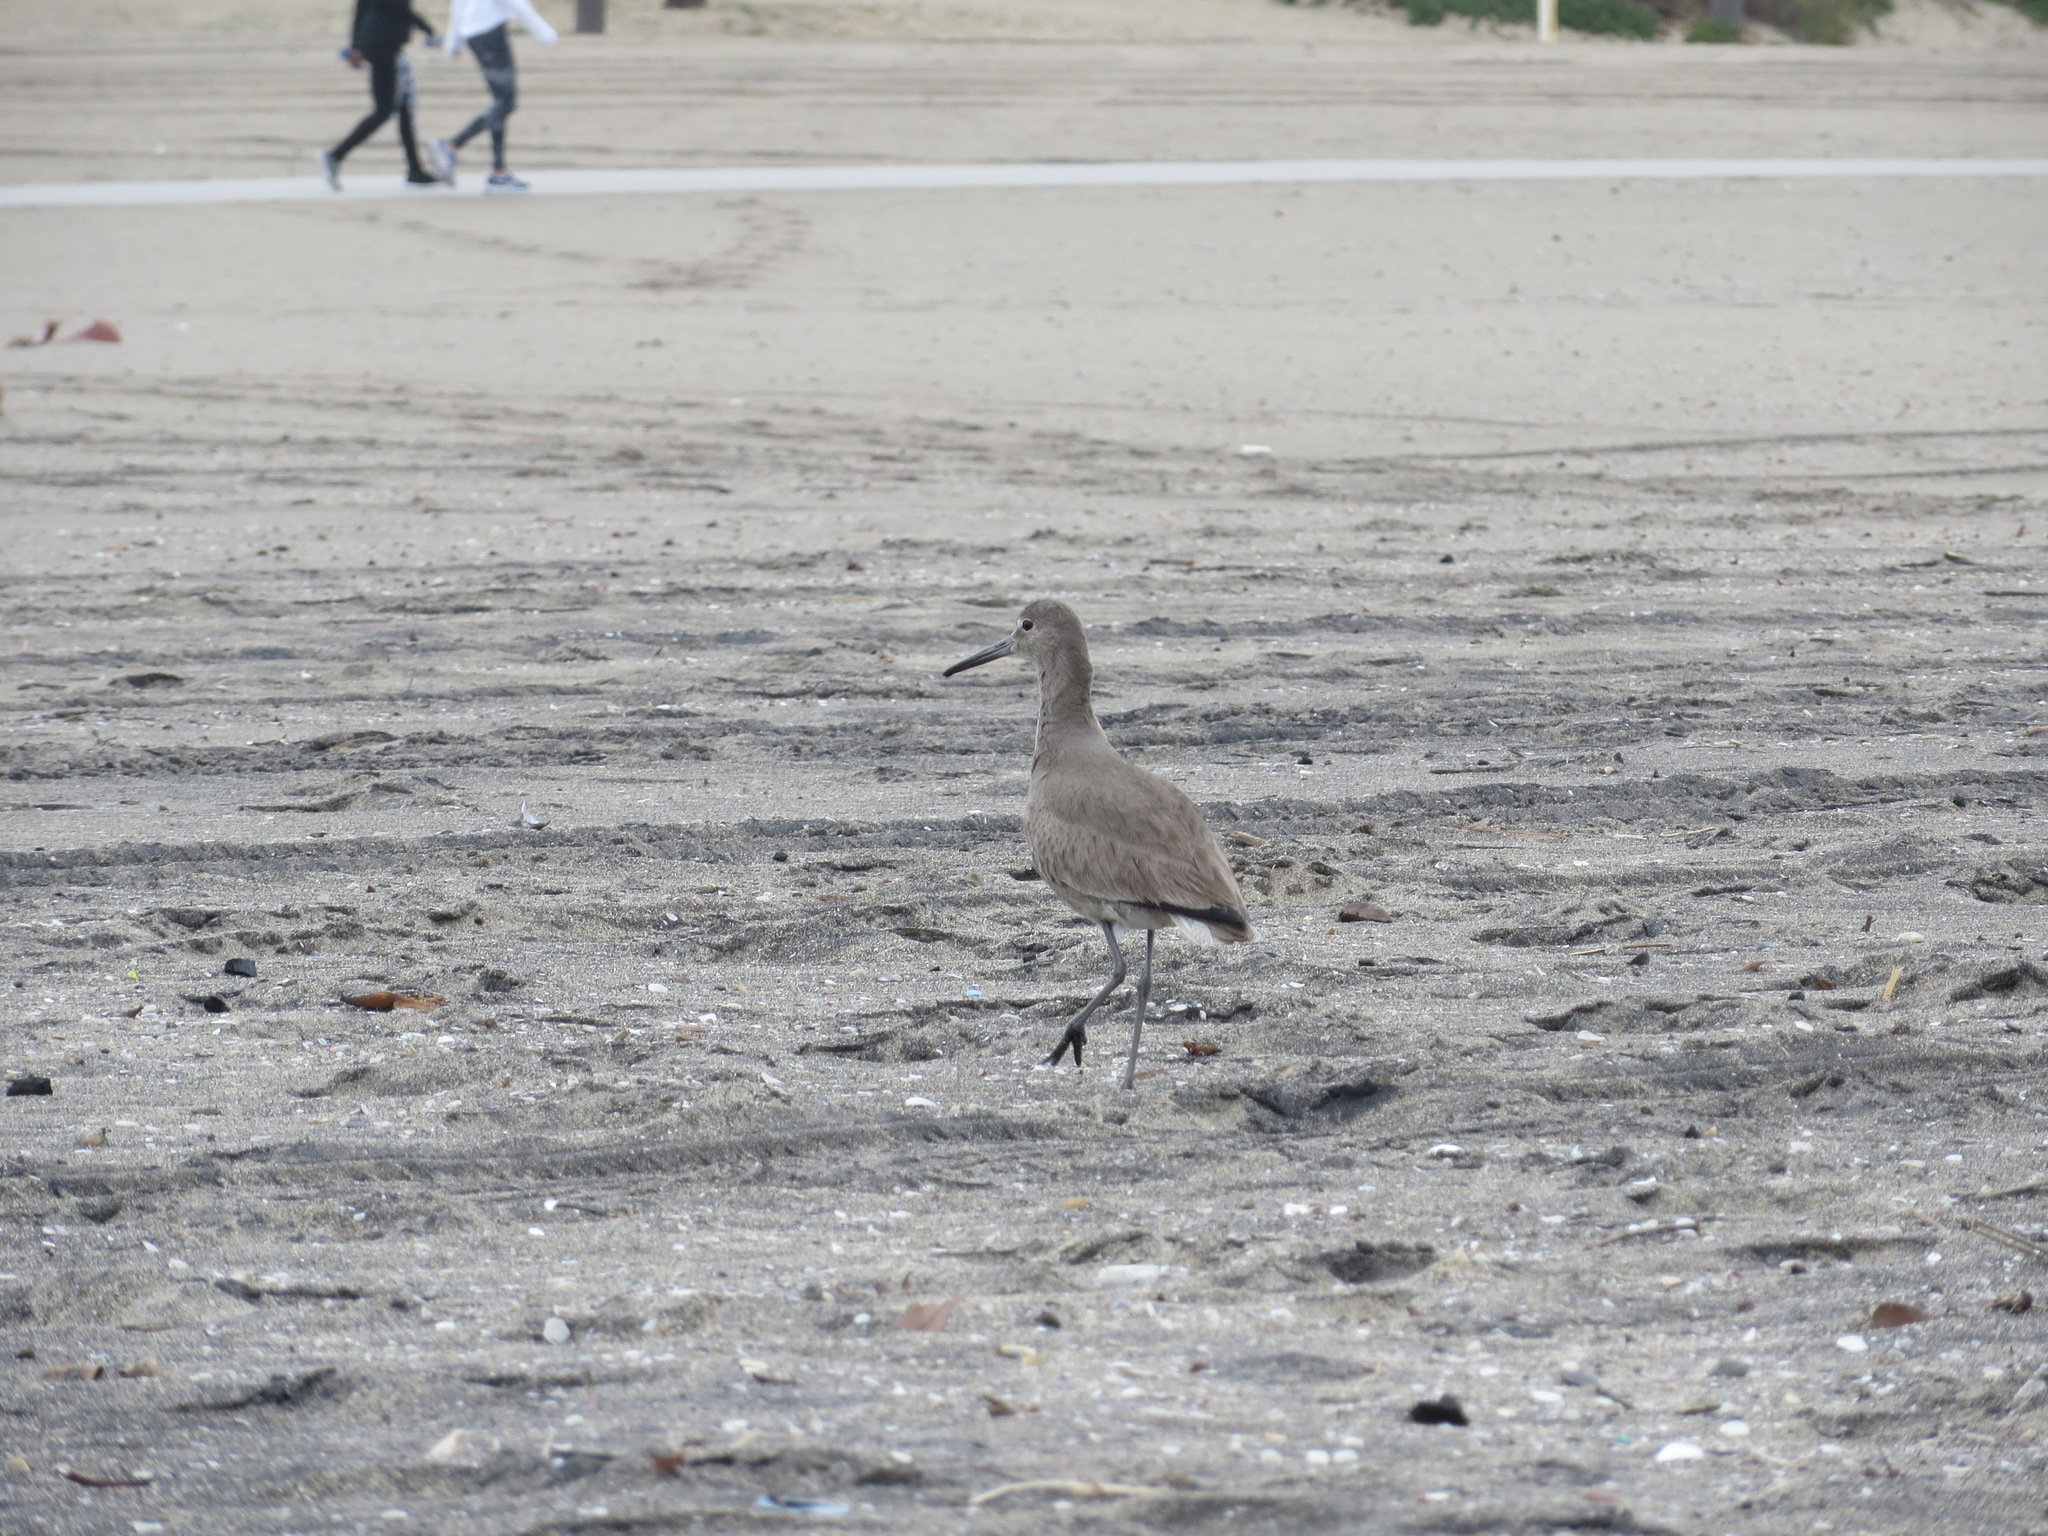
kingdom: Animalia
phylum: Chordata
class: Aves
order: Charadriiformes
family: Scolopacidae
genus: Tringa
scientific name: Tringa semipalmata
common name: Willet
